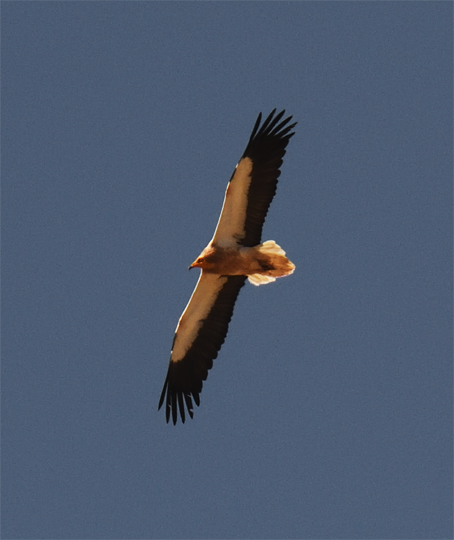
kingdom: Animalia
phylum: Chordata
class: Aves
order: Accipitriformes
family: Accipitridae
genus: Neophron
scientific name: Neophron percnopterus
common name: Egyptian vulture
